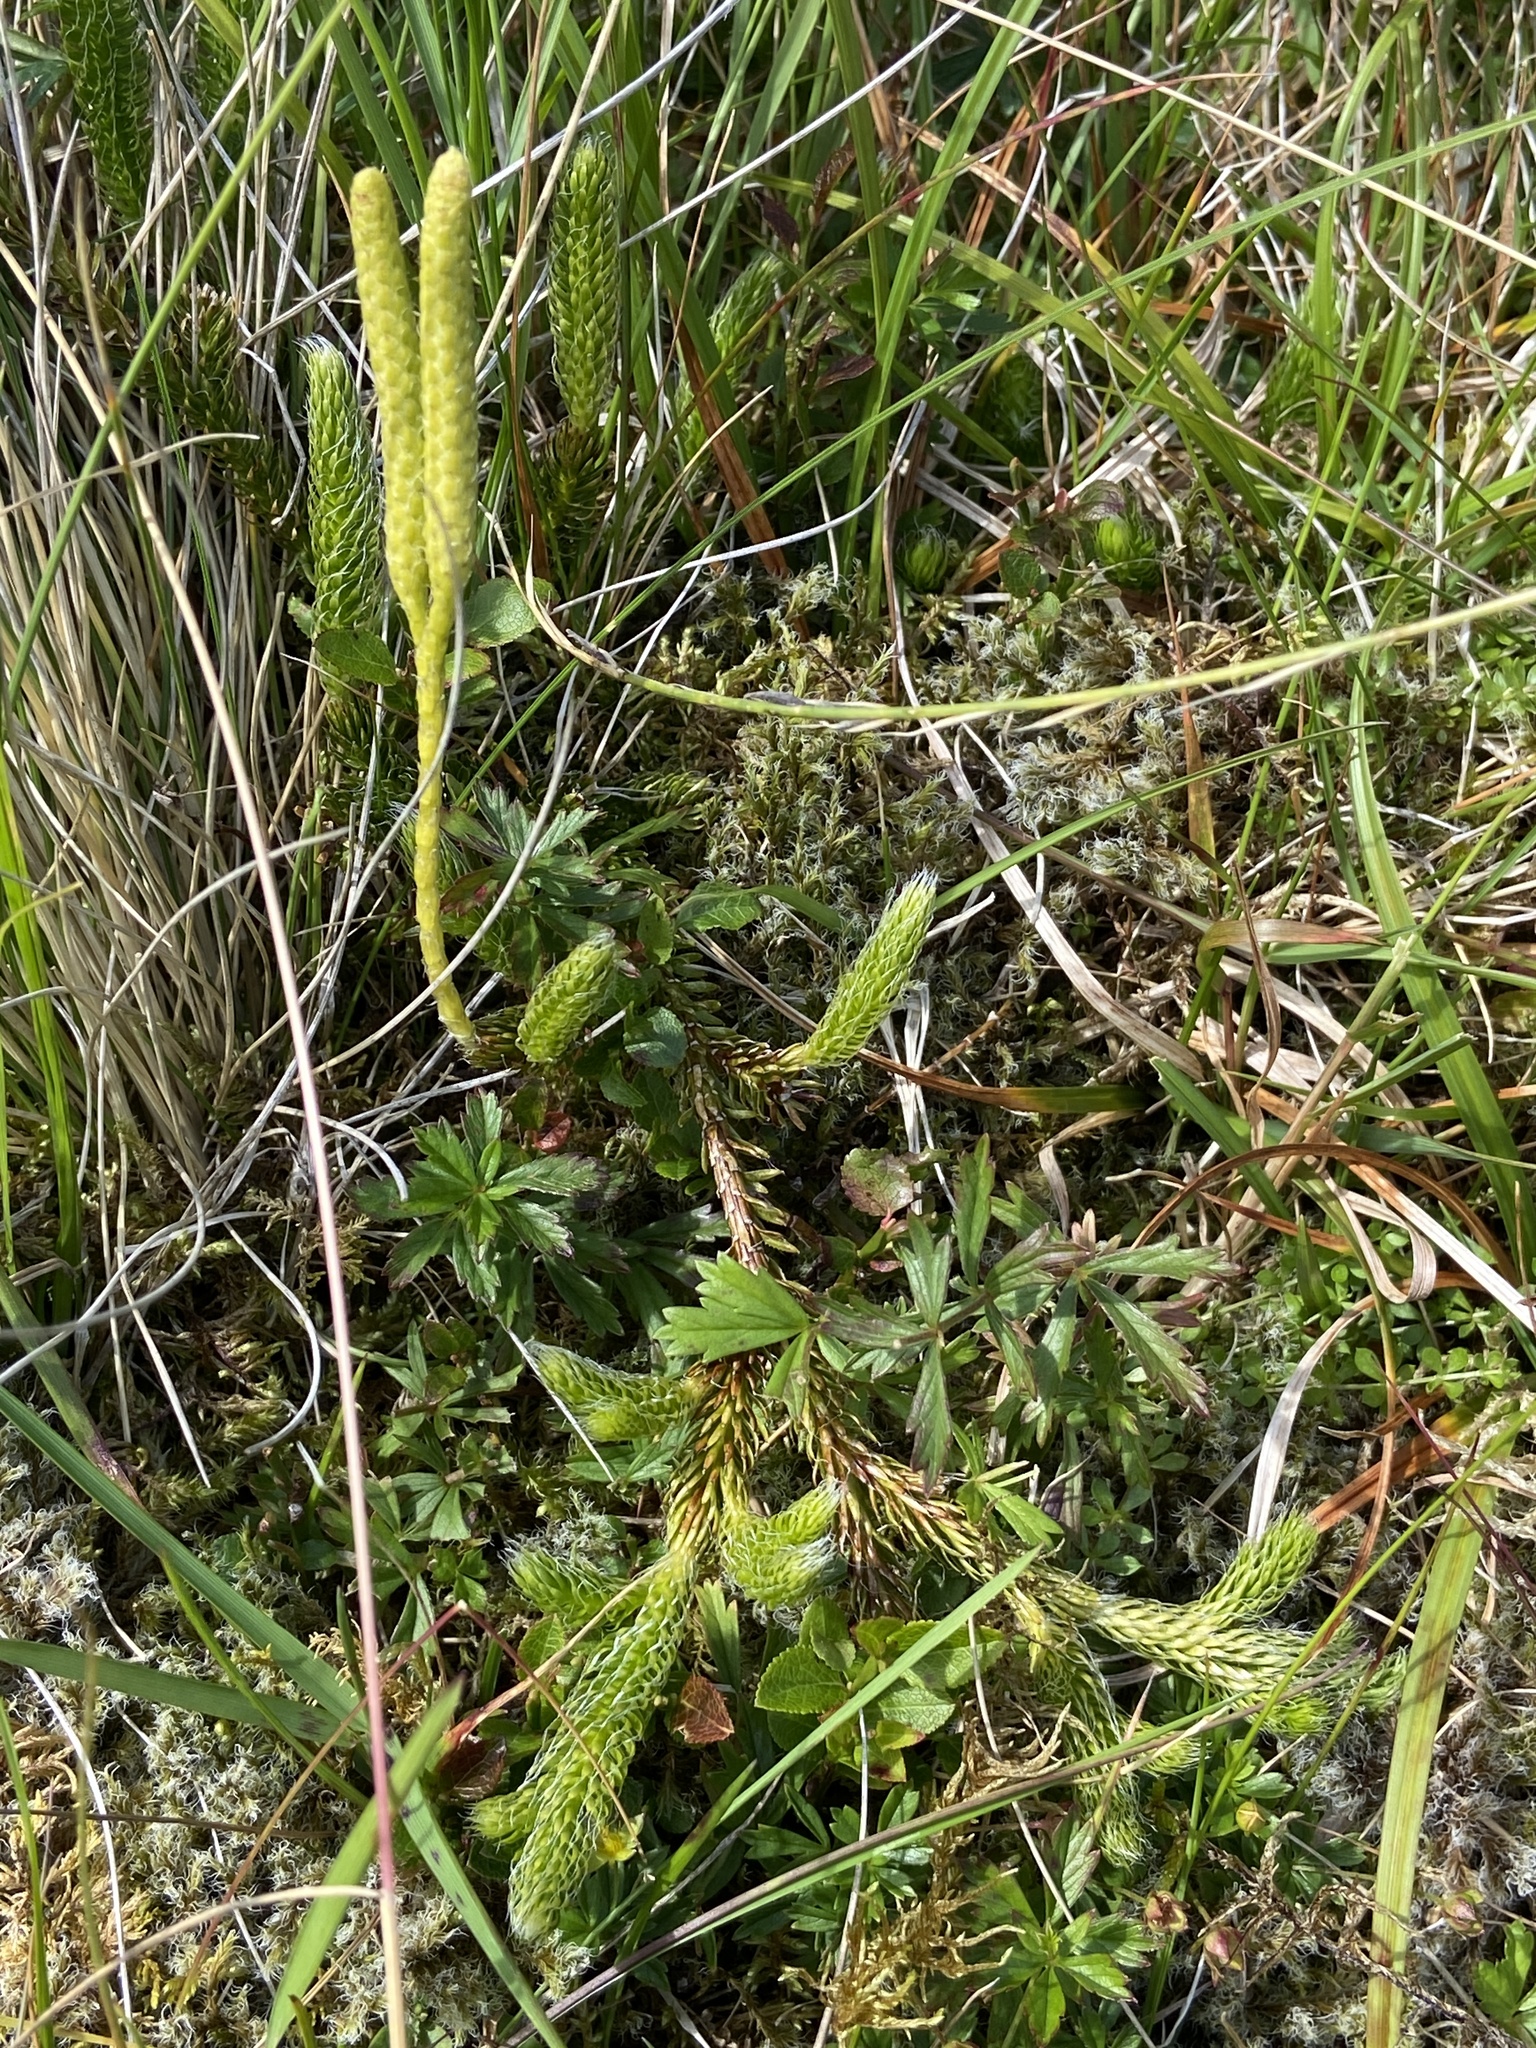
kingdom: Plantae
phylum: Tracheophyta
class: Lycopodiopsida
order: Lycopodiales
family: Lycopodiaceae
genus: Lycopodium
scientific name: Lycopodium clavatum
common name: Stag's-horn clubmoss
